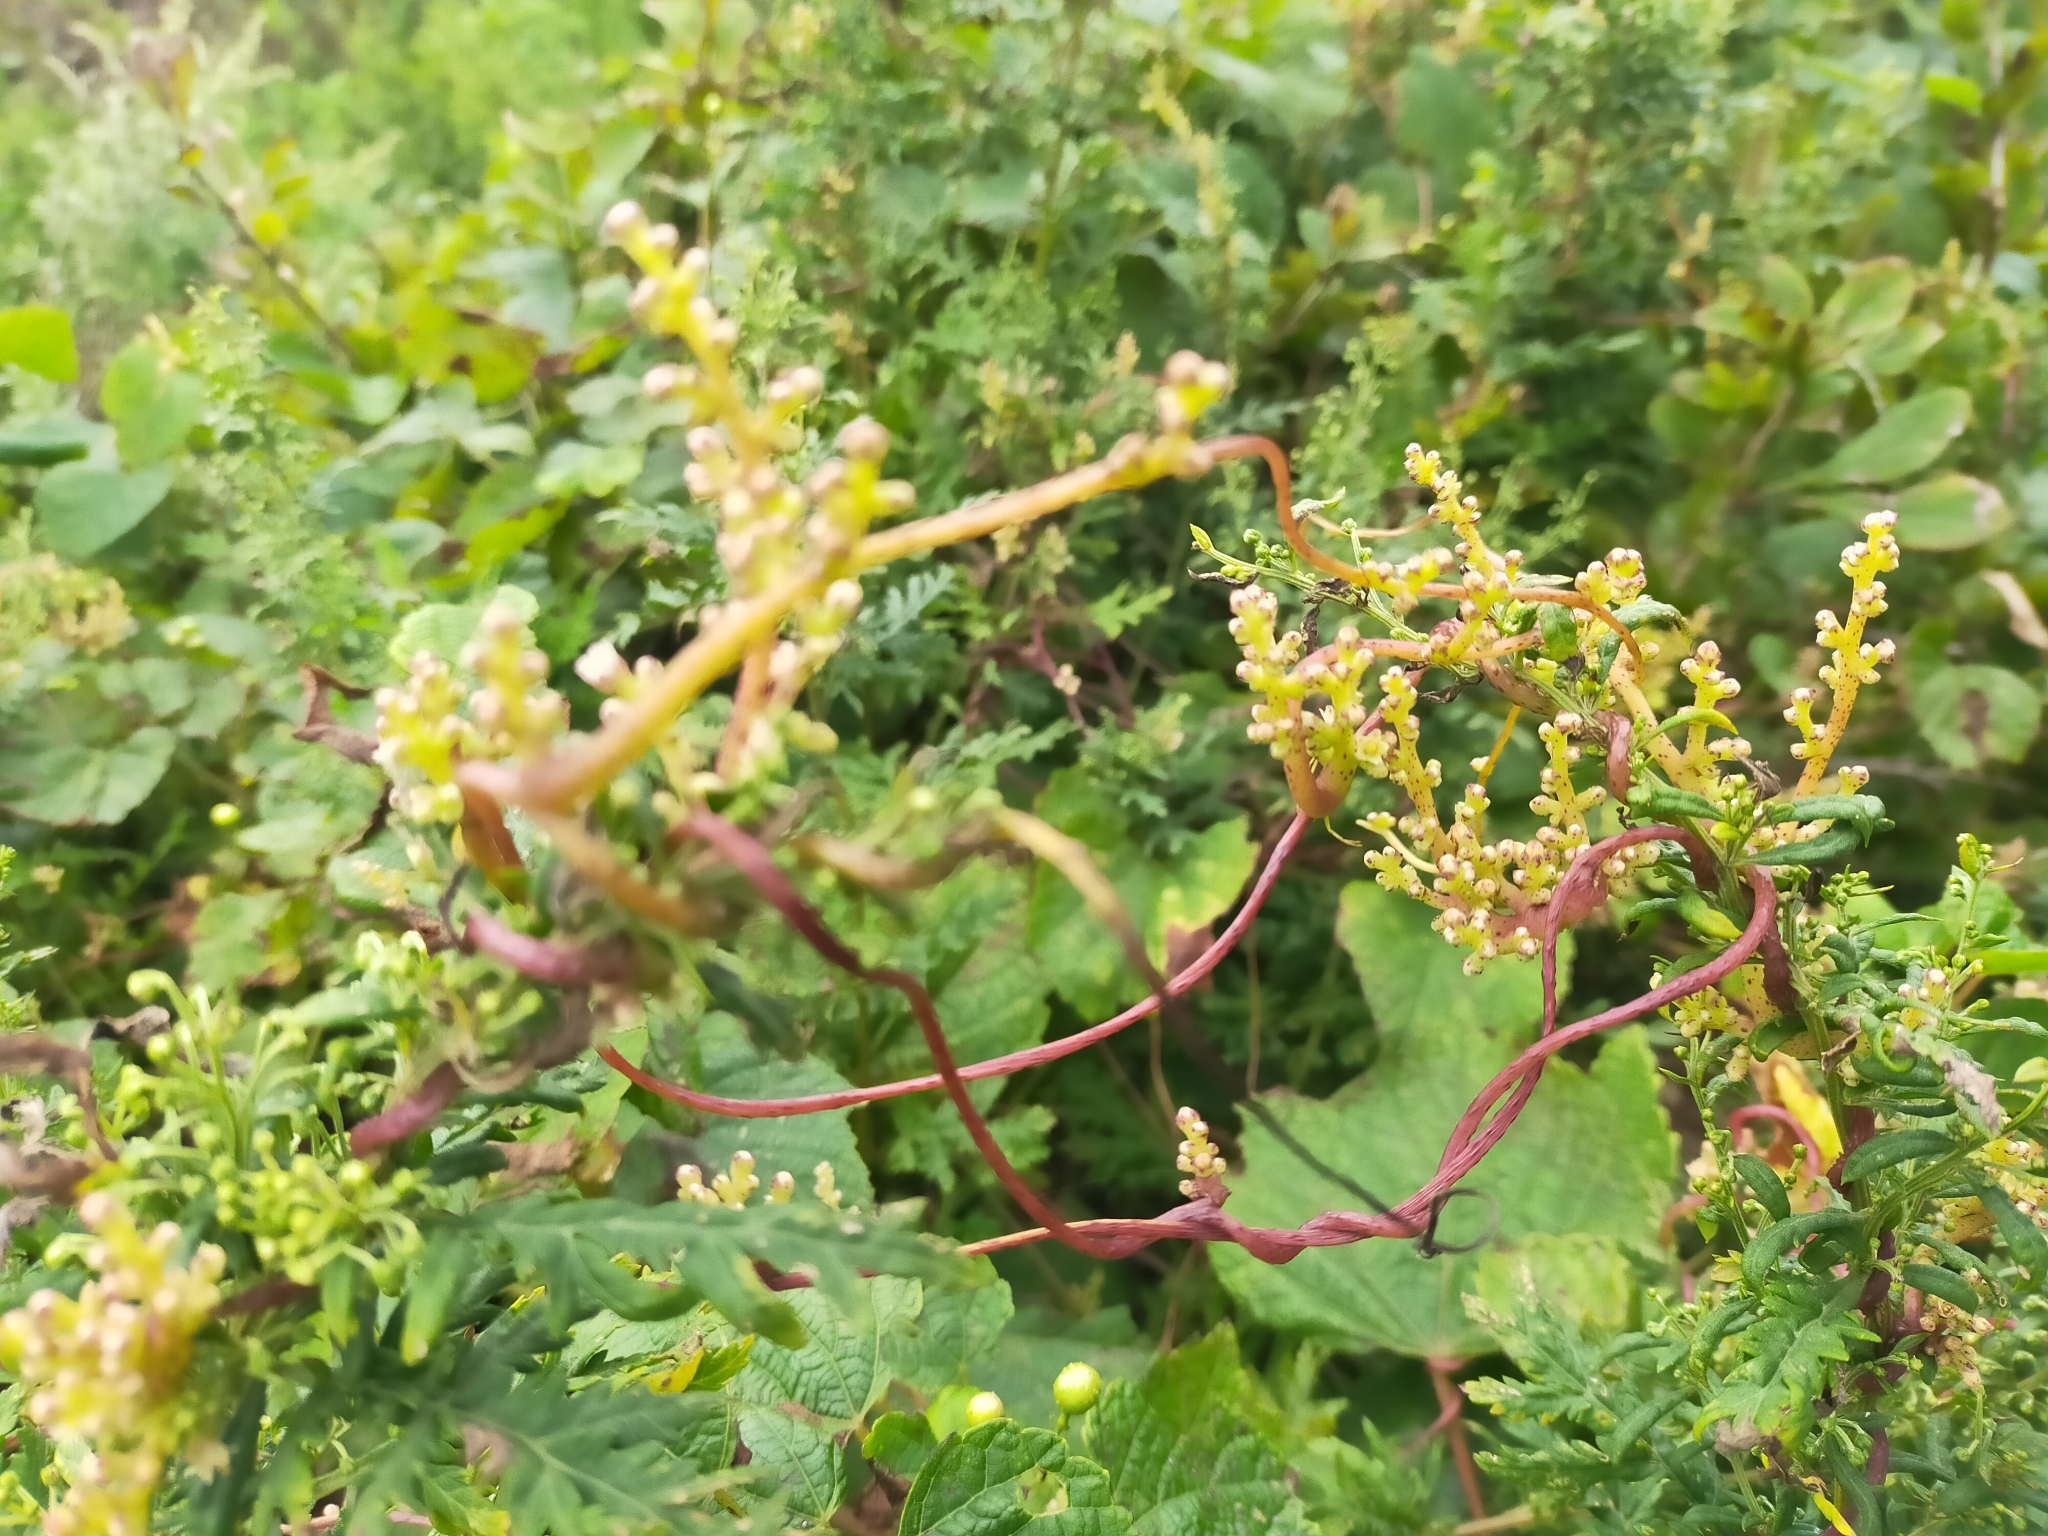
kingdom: Plantae
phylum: Tracheophyta
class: Magnoliopsida
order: Solanales
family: Convolvulaceae
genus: Cuscuta
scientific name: Cuscuta japonica
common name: Japanese dodder
